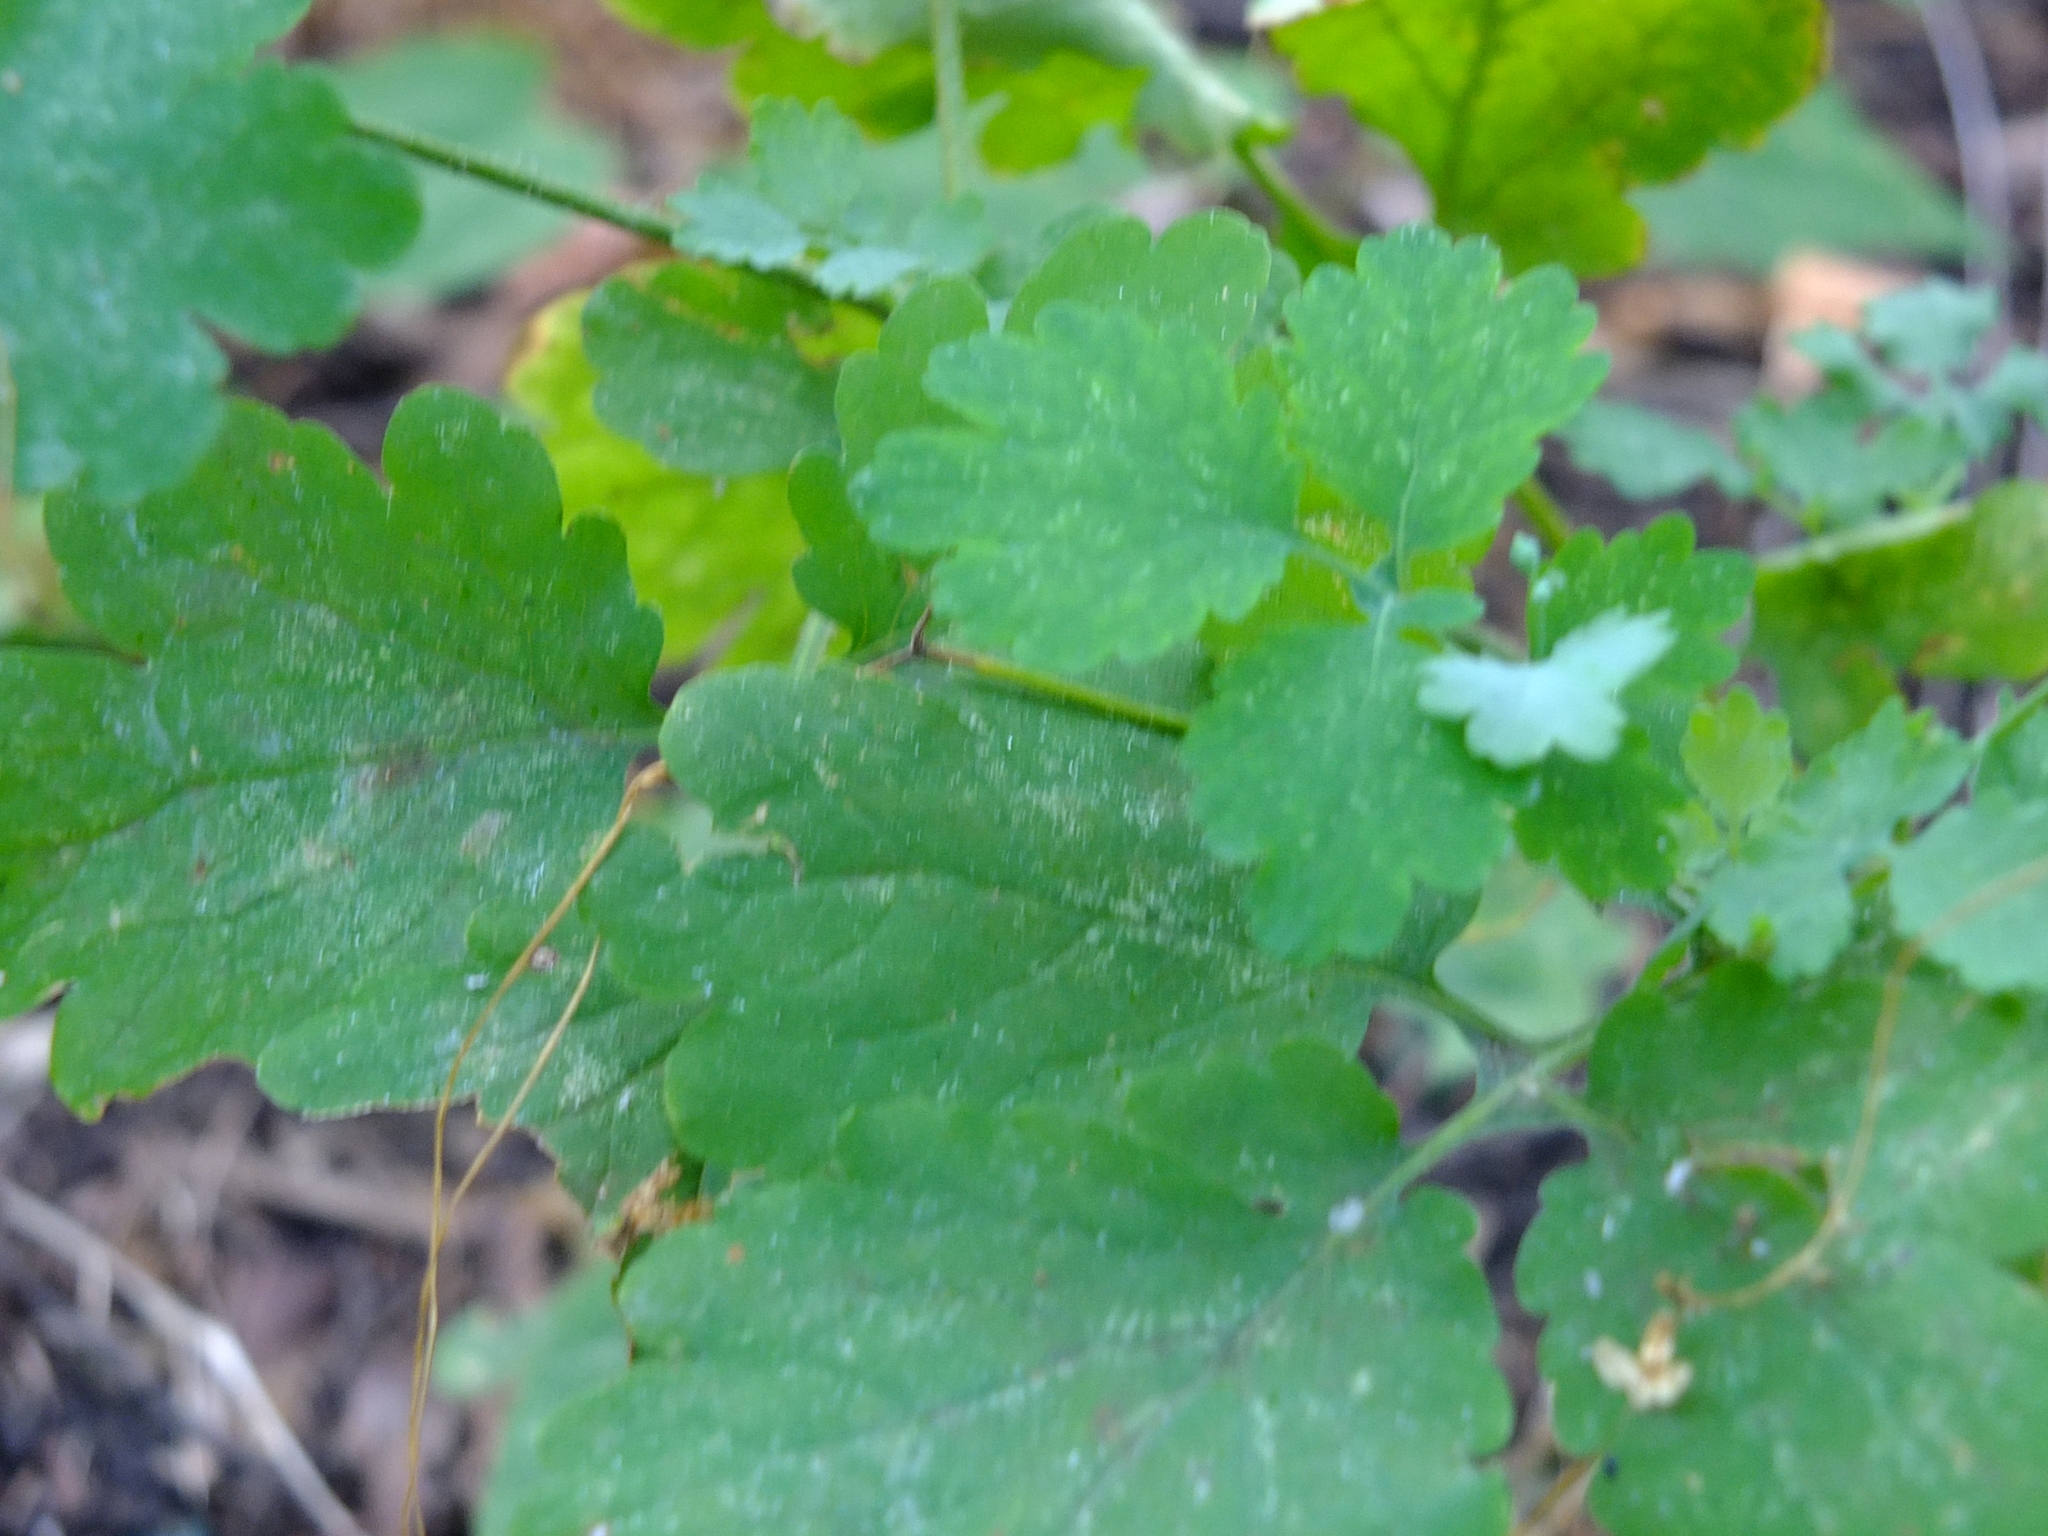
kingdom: Plantae
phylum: Tracheophyta
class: Magnoliopsida
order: Ranunculales
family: Papaveraceae
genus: Chelidonium
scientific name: Chelidonium majus
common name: Greater celandine
